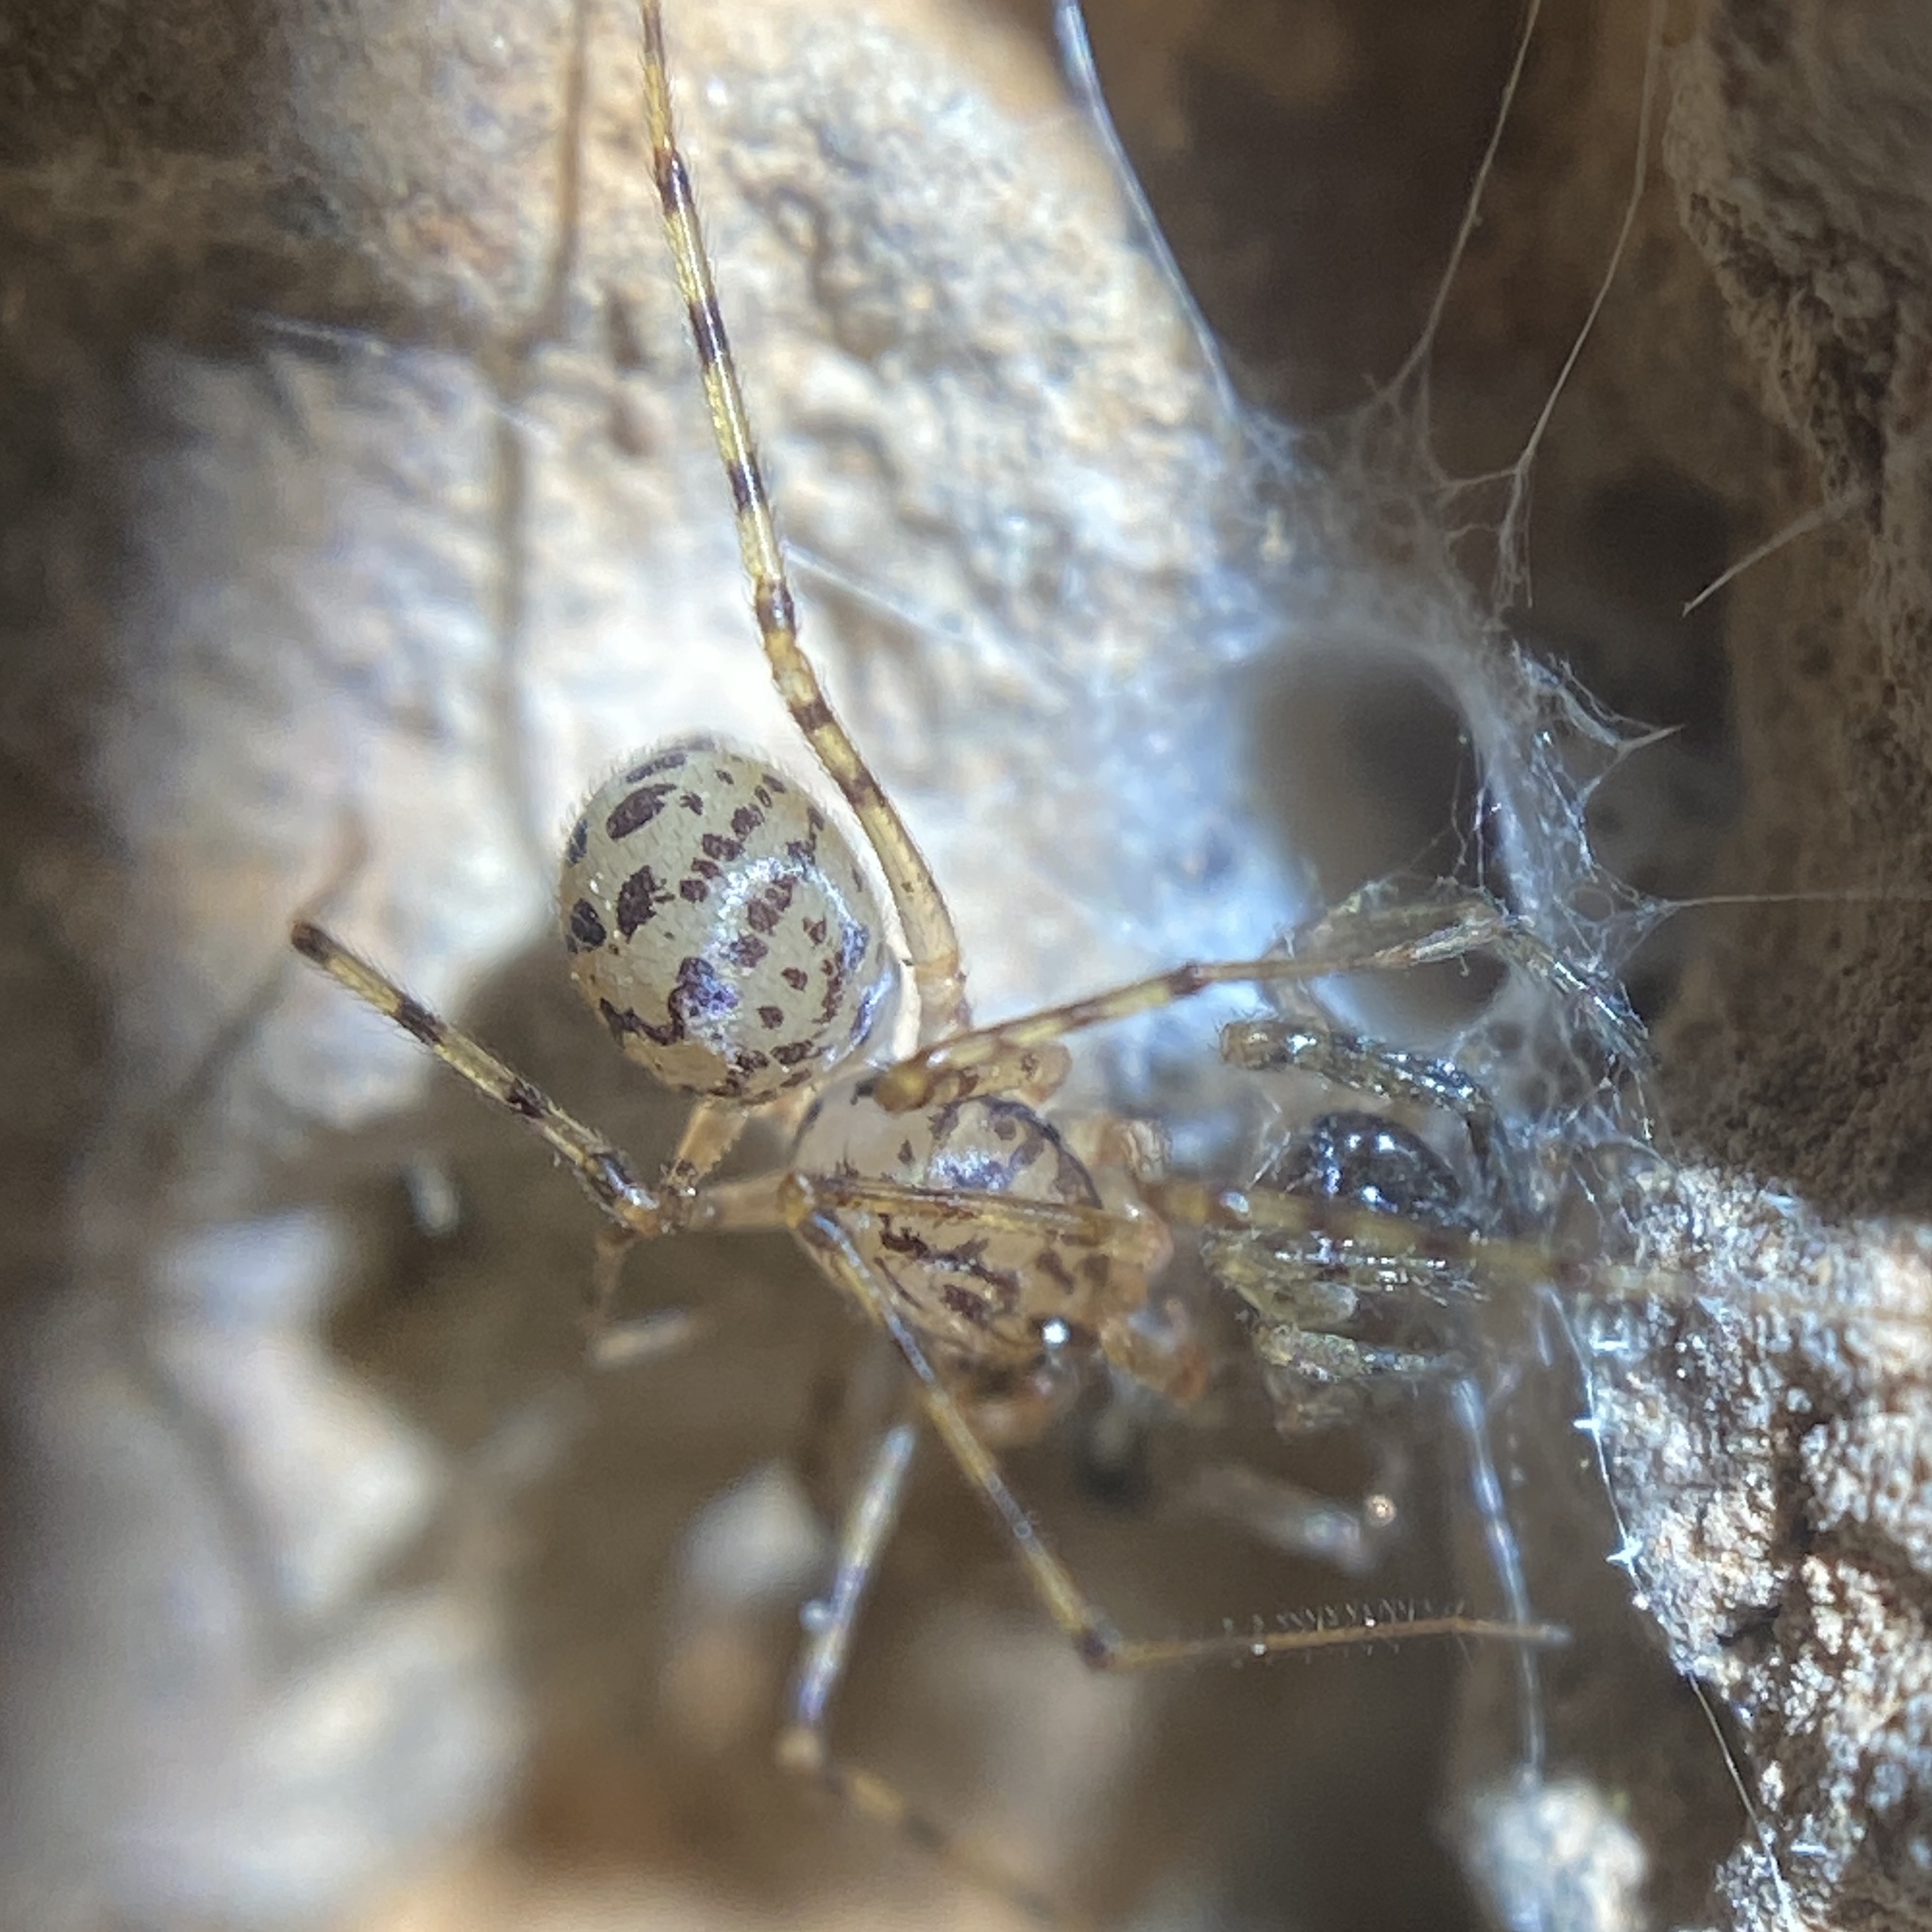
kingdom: Animalia
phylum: Arthropoda
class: Arachnida
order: Araneae
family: Scytodidae
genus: Scytodes
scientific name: Scytodes thoracica
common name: Spitting spider
